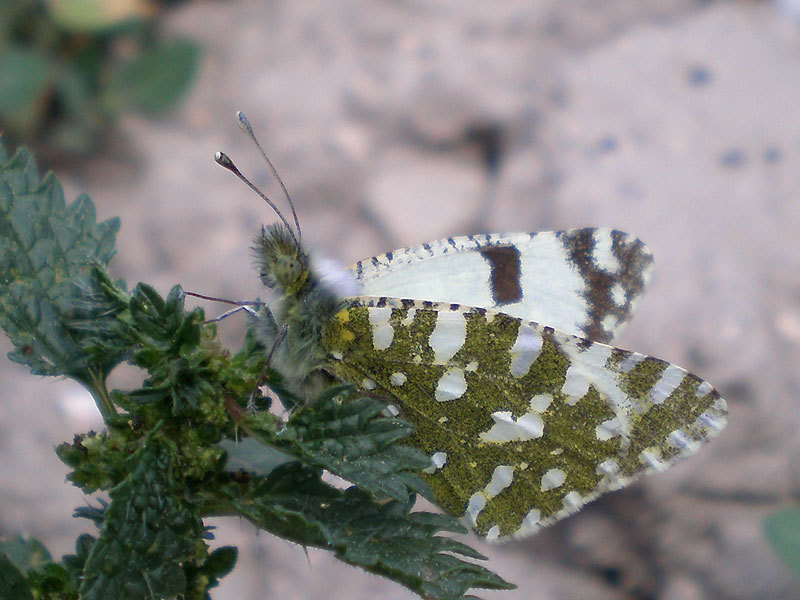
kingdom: Animalia
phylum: Arthropoda
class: Insecta
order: Lepidoptera
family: Pieridae
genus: Euchloe
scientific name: Euchloe crameri
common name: Western dappled white
